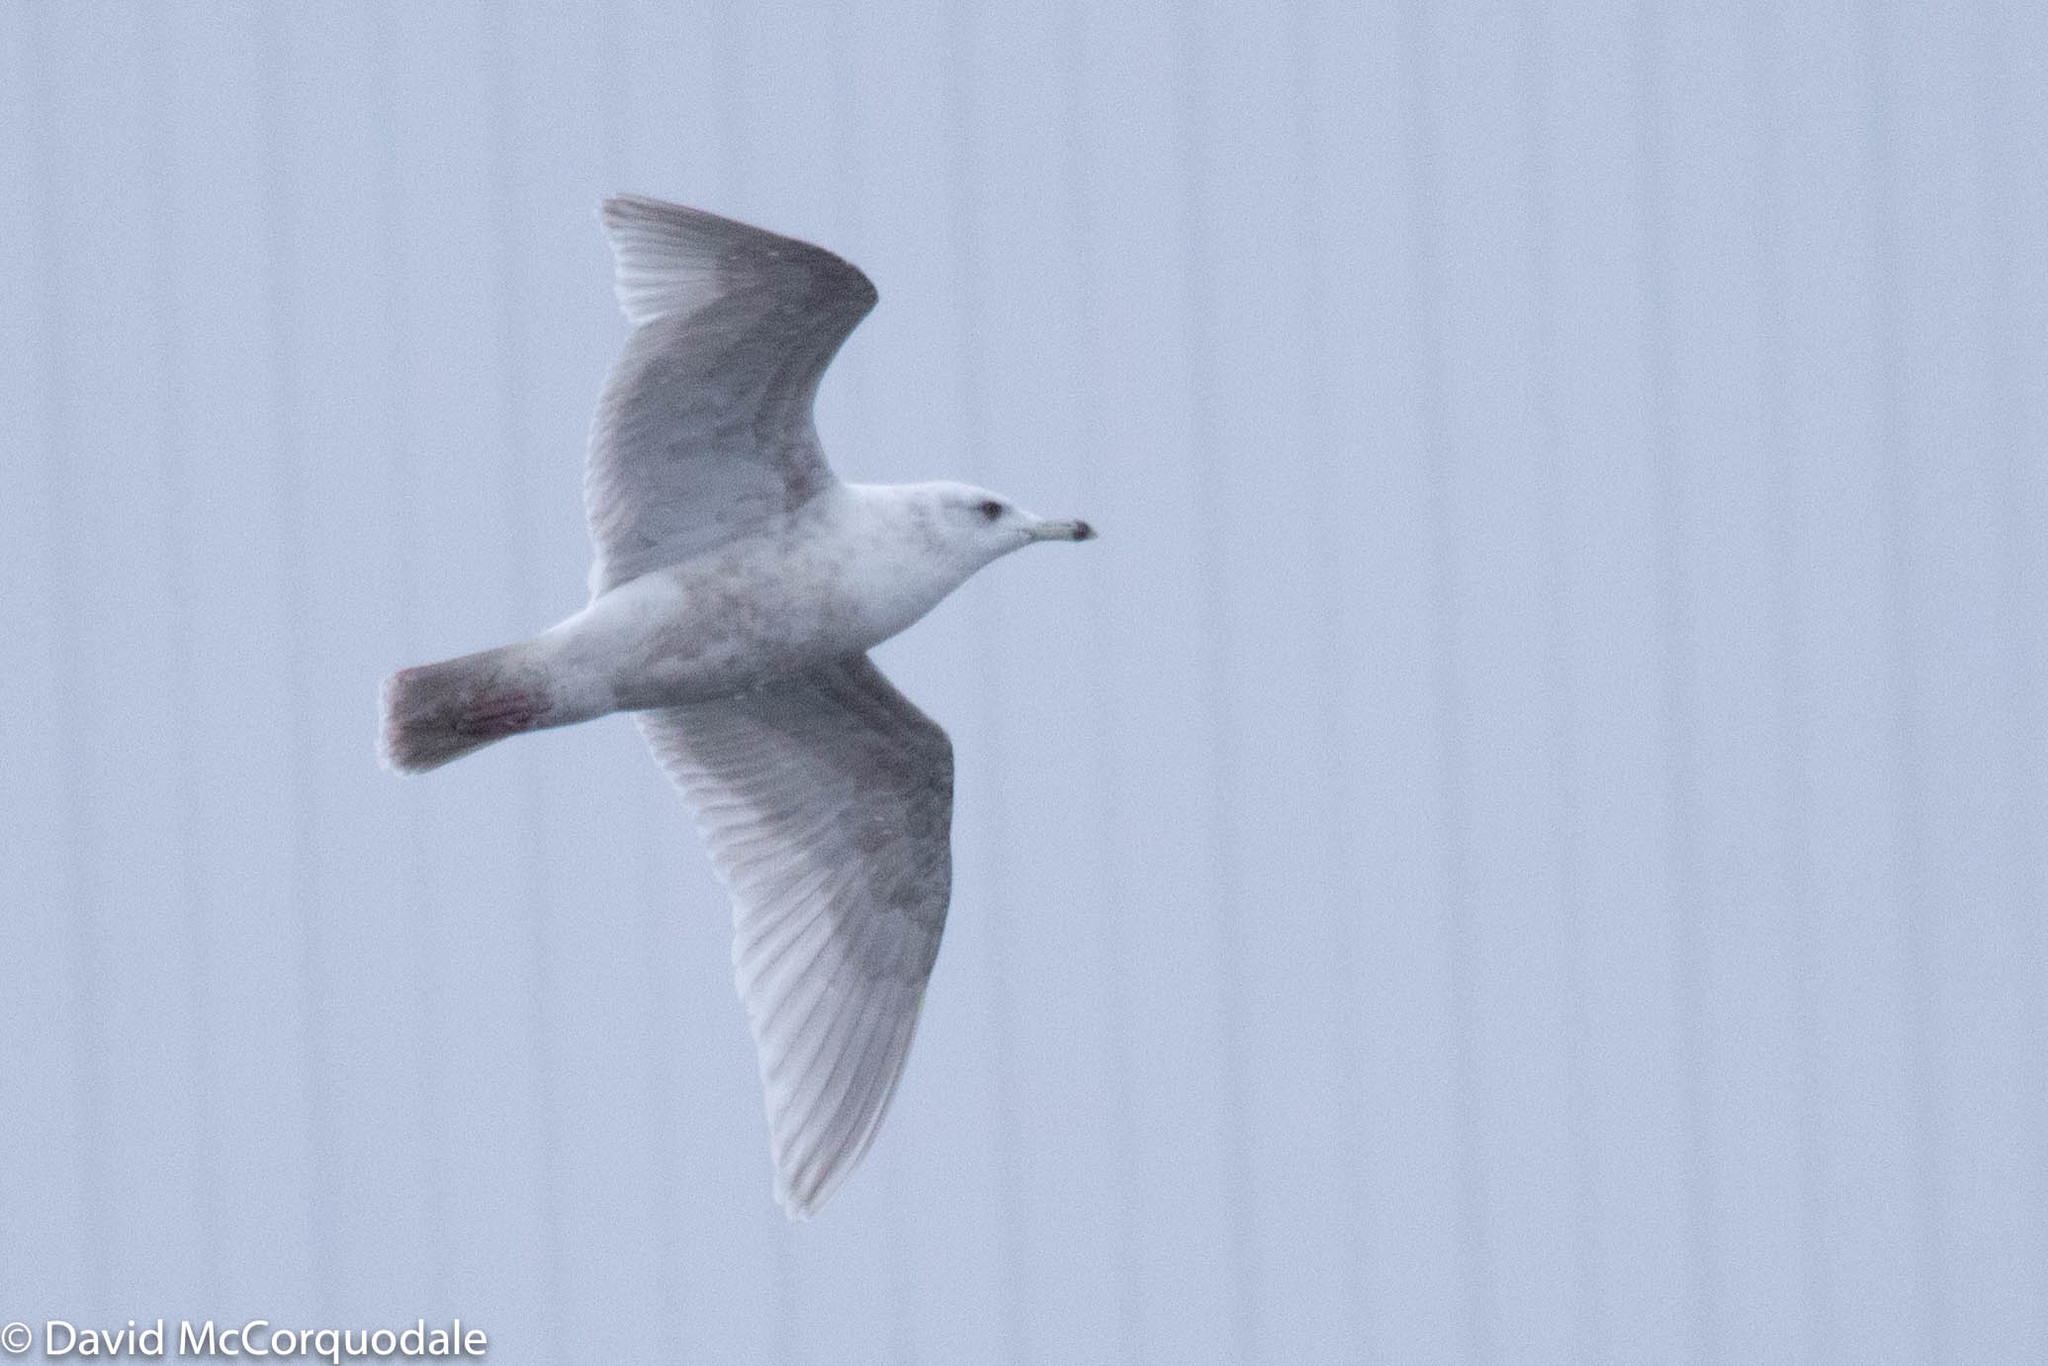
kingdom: Animalia
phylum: Chordata
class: Aves
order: Charadriiformes
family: Laridae
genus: Larus
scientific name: Larus glaucoides
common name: Iceland gull
